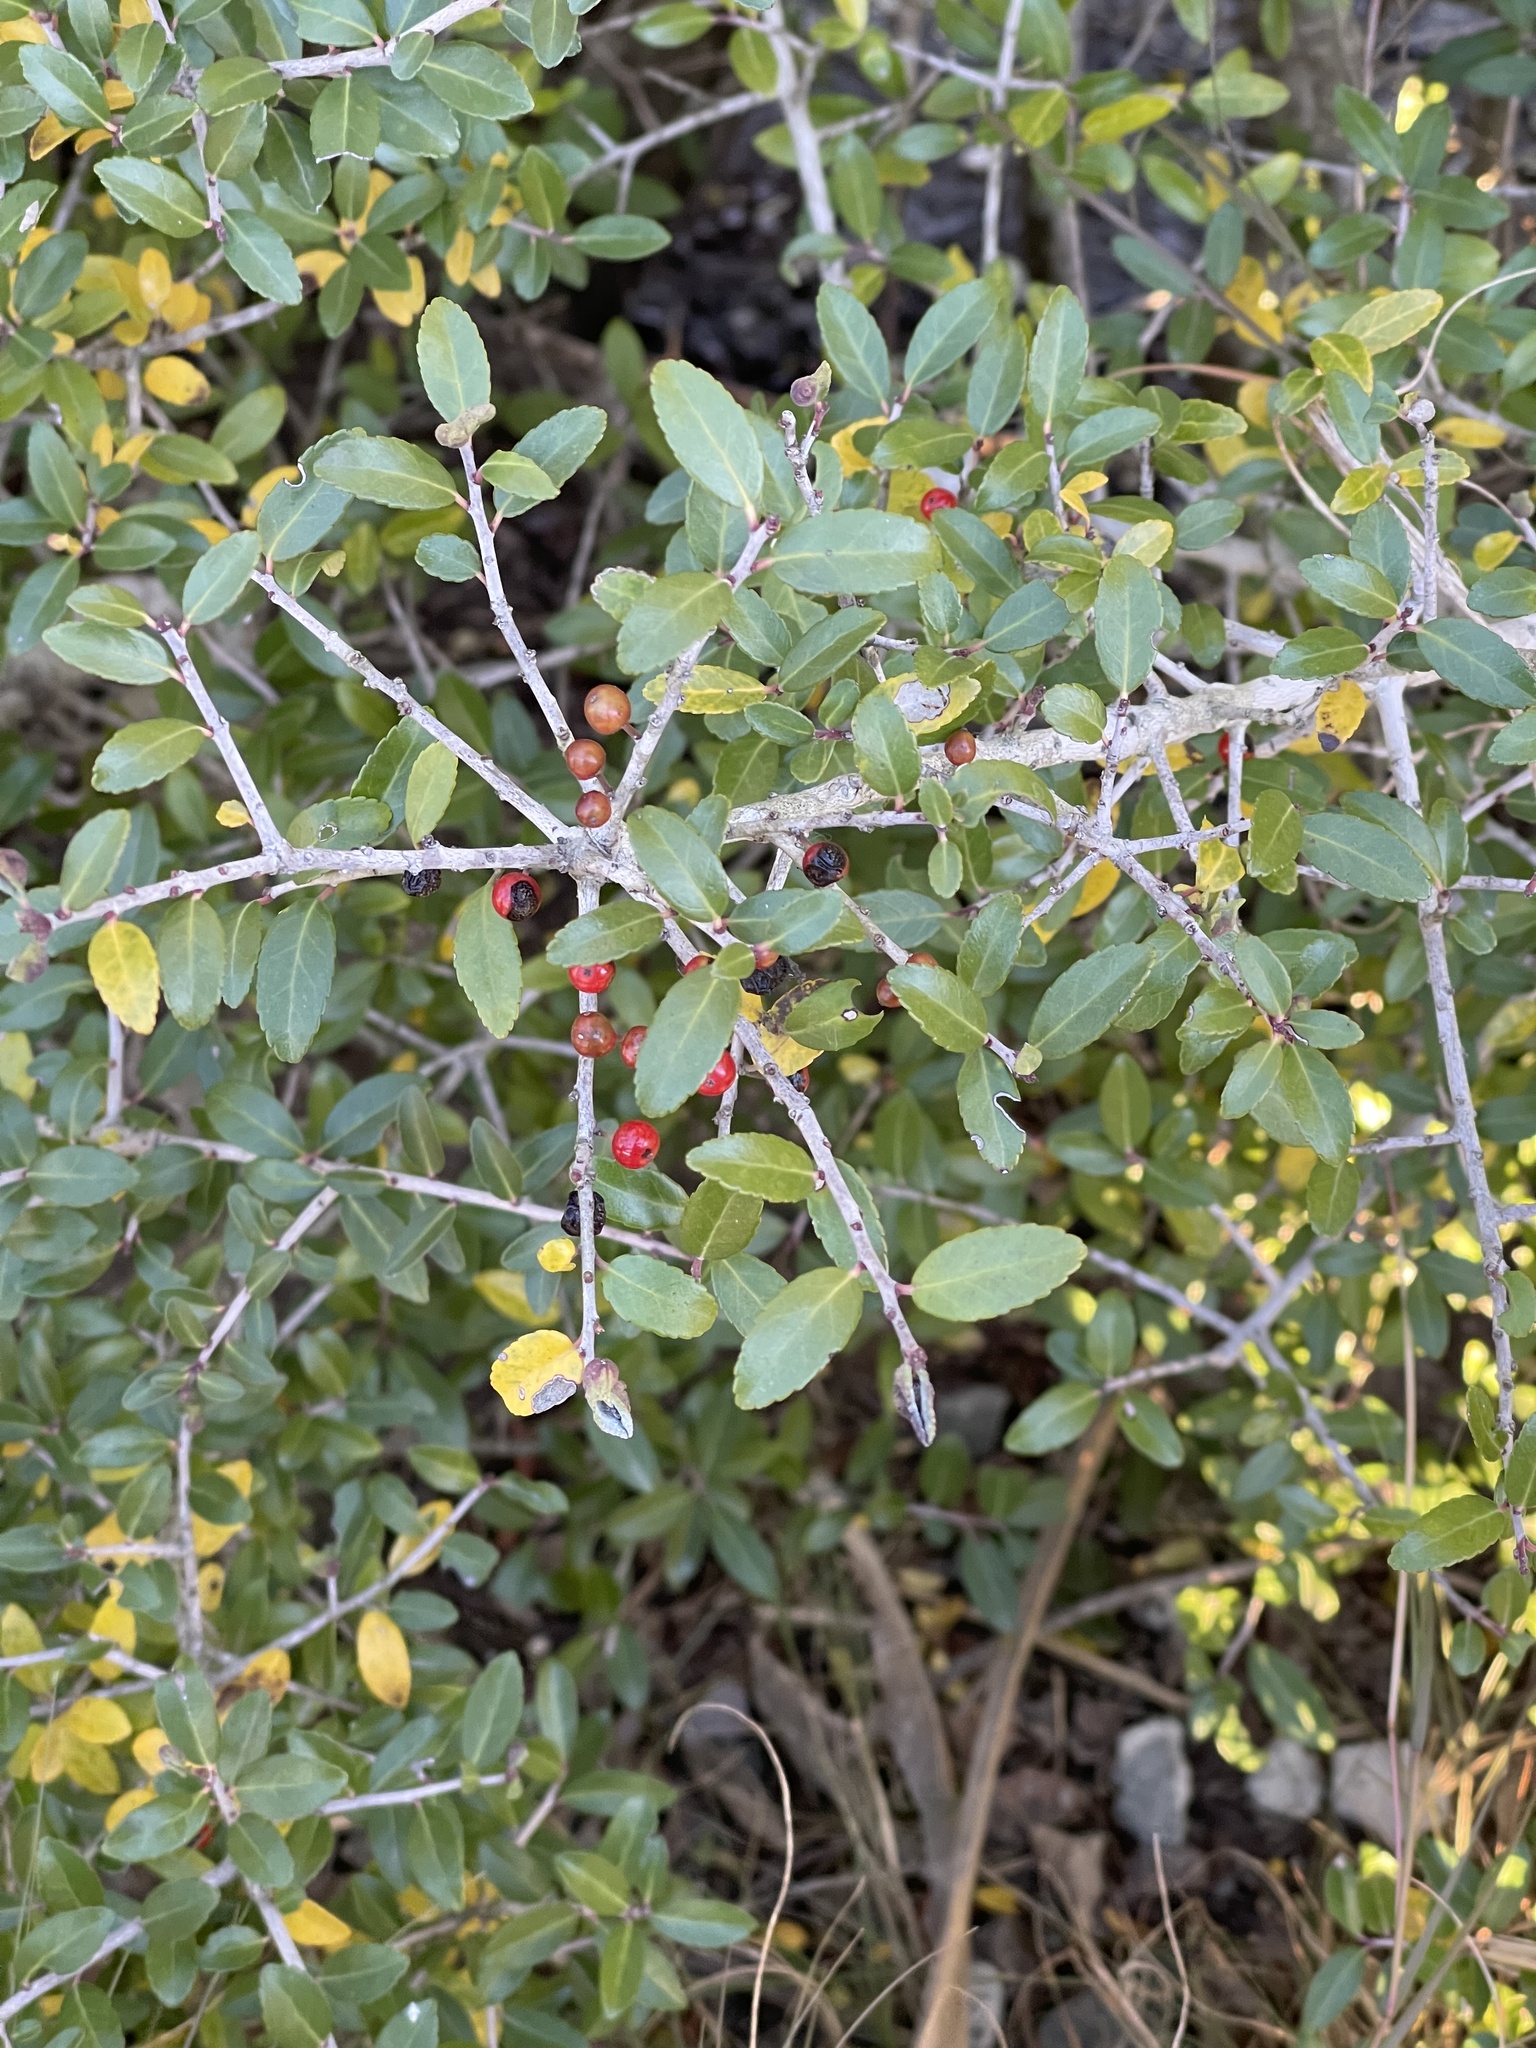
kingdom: Plantae
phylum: Tracheophyta
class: Magnoliopsida
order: Aquifoliales
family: Aquifoliaceae
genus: Ilex
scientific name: Ilex vomitoria
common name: Yaupon holly
